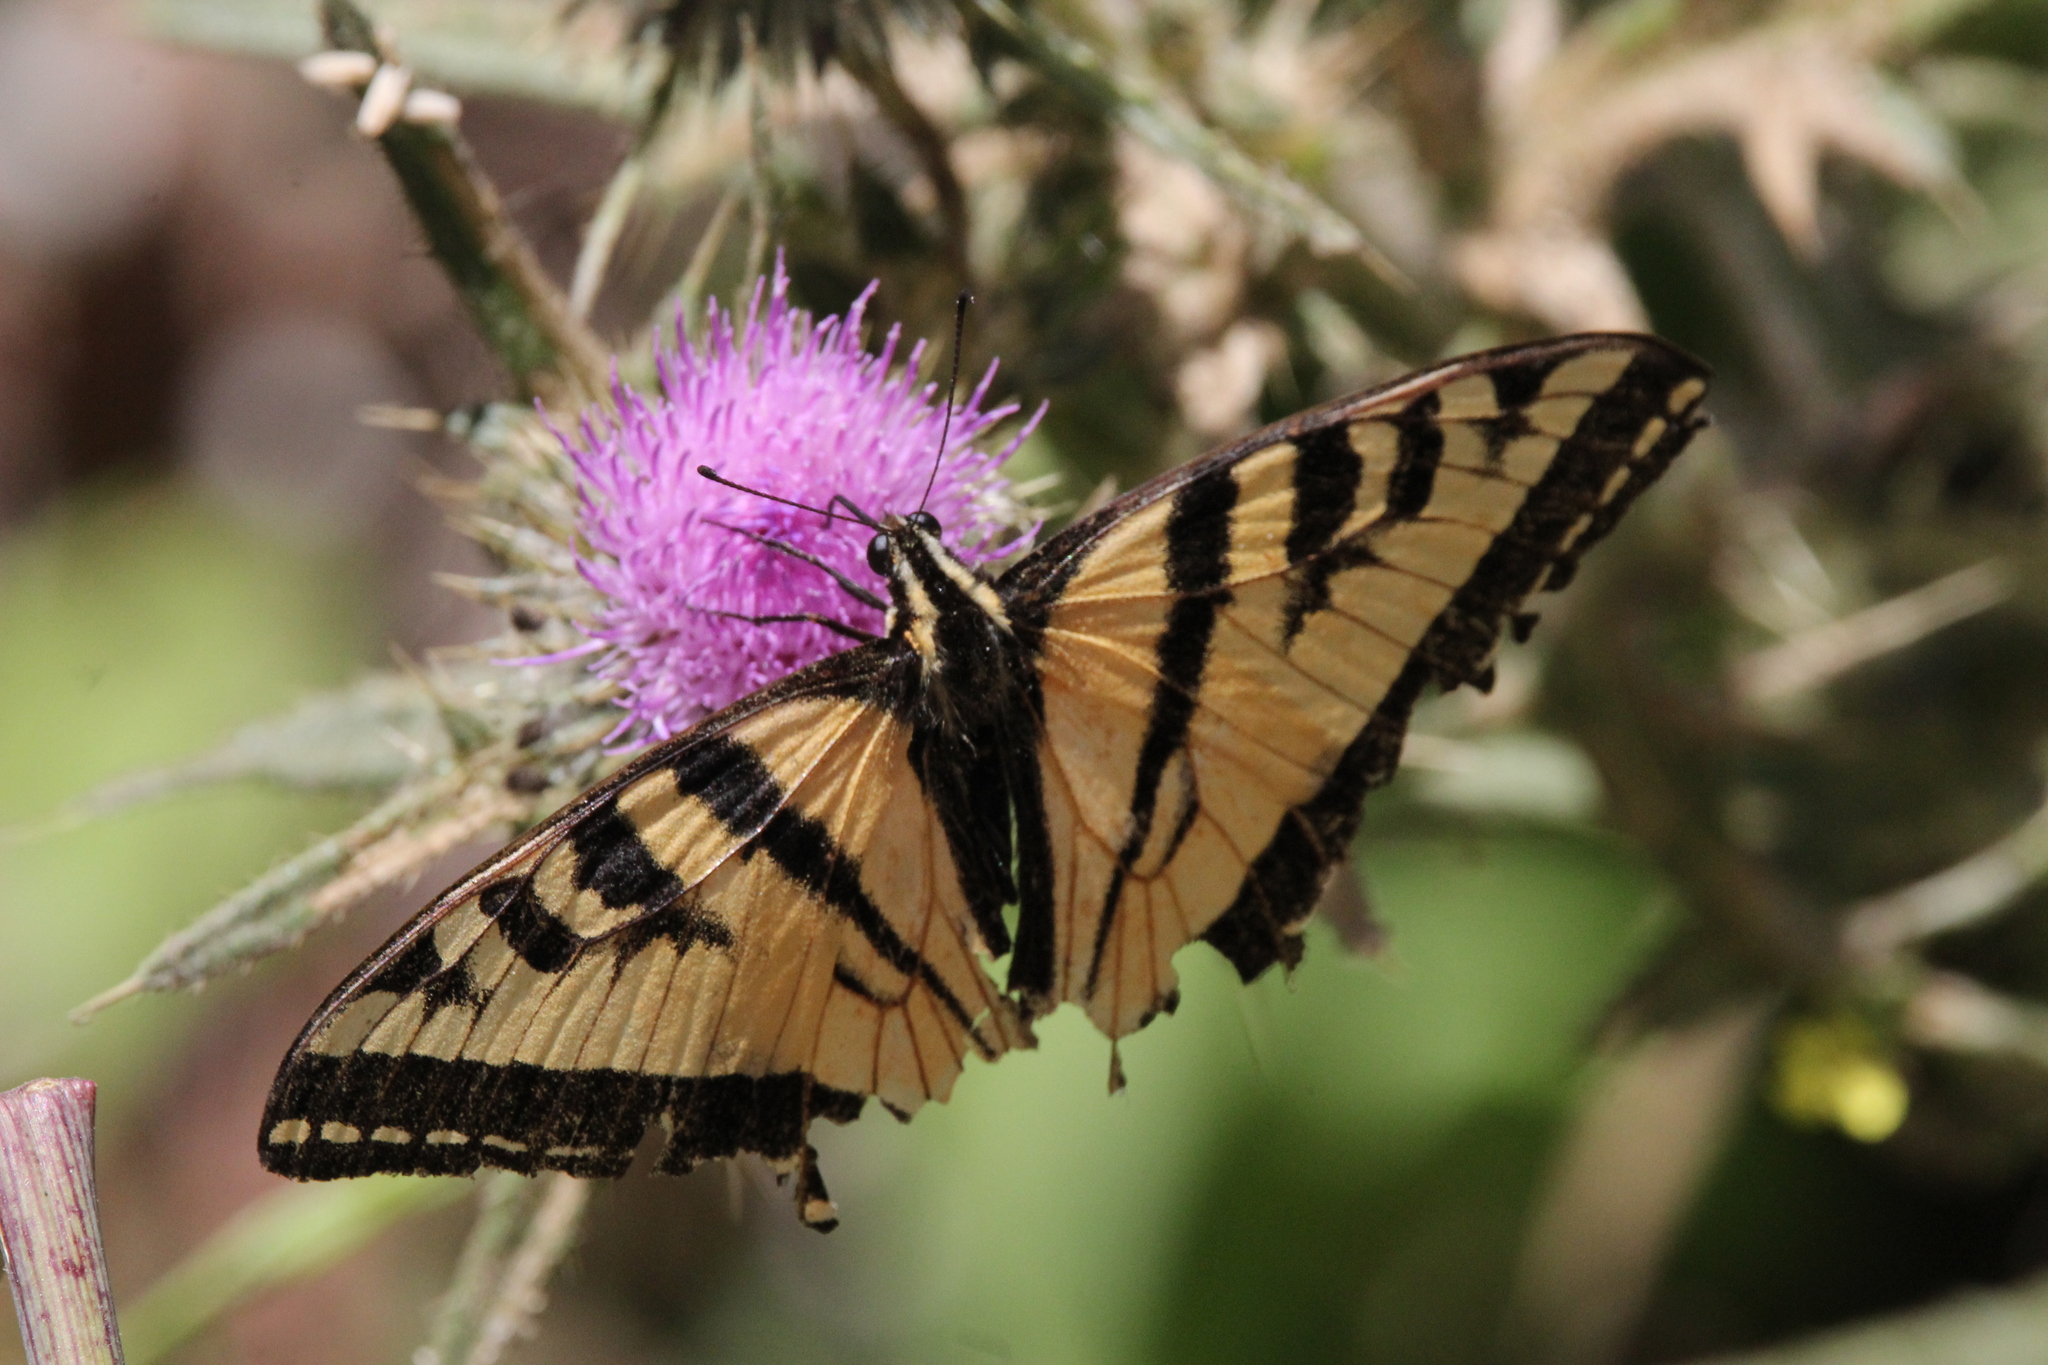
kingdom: Animalia
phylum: Arthropoda
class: Insecta
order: Lepidoptera
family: Papilionidae
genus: Papilio
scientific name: Papilio rutulus
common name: Western tiger swallowtail
